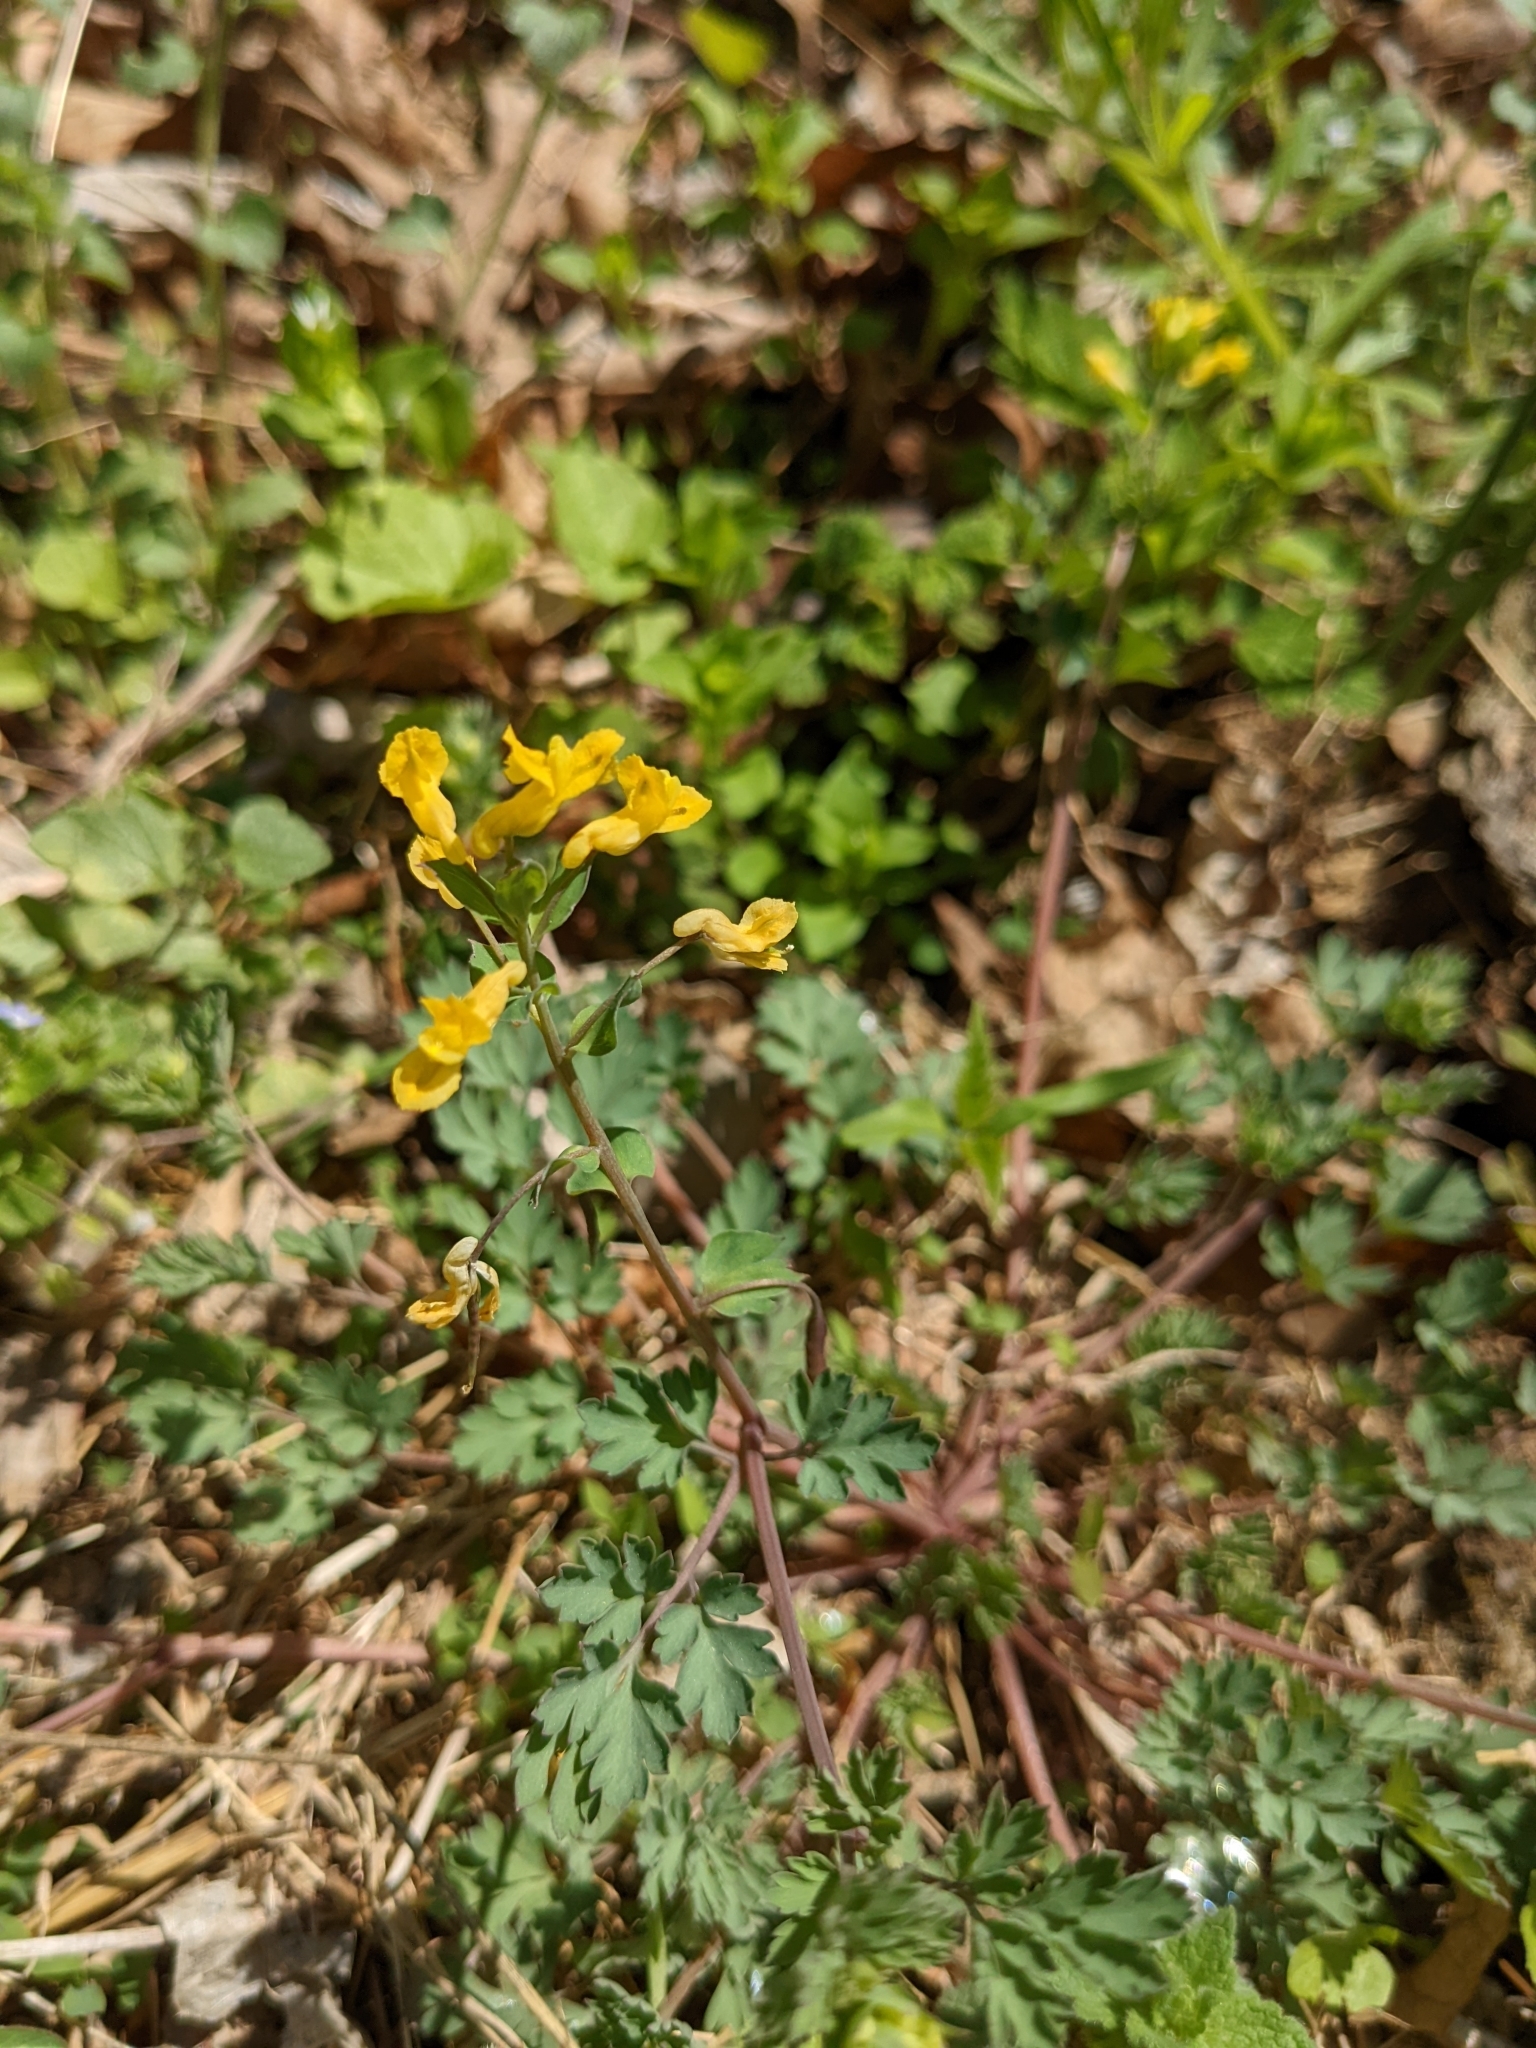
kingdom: Plantae
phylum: Tracheophyta
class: Magnoliopsida
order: Ranunculales
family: Papaveraceae
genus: Corydalis
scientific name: Corydalis flavula
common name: Yellow corydalis
